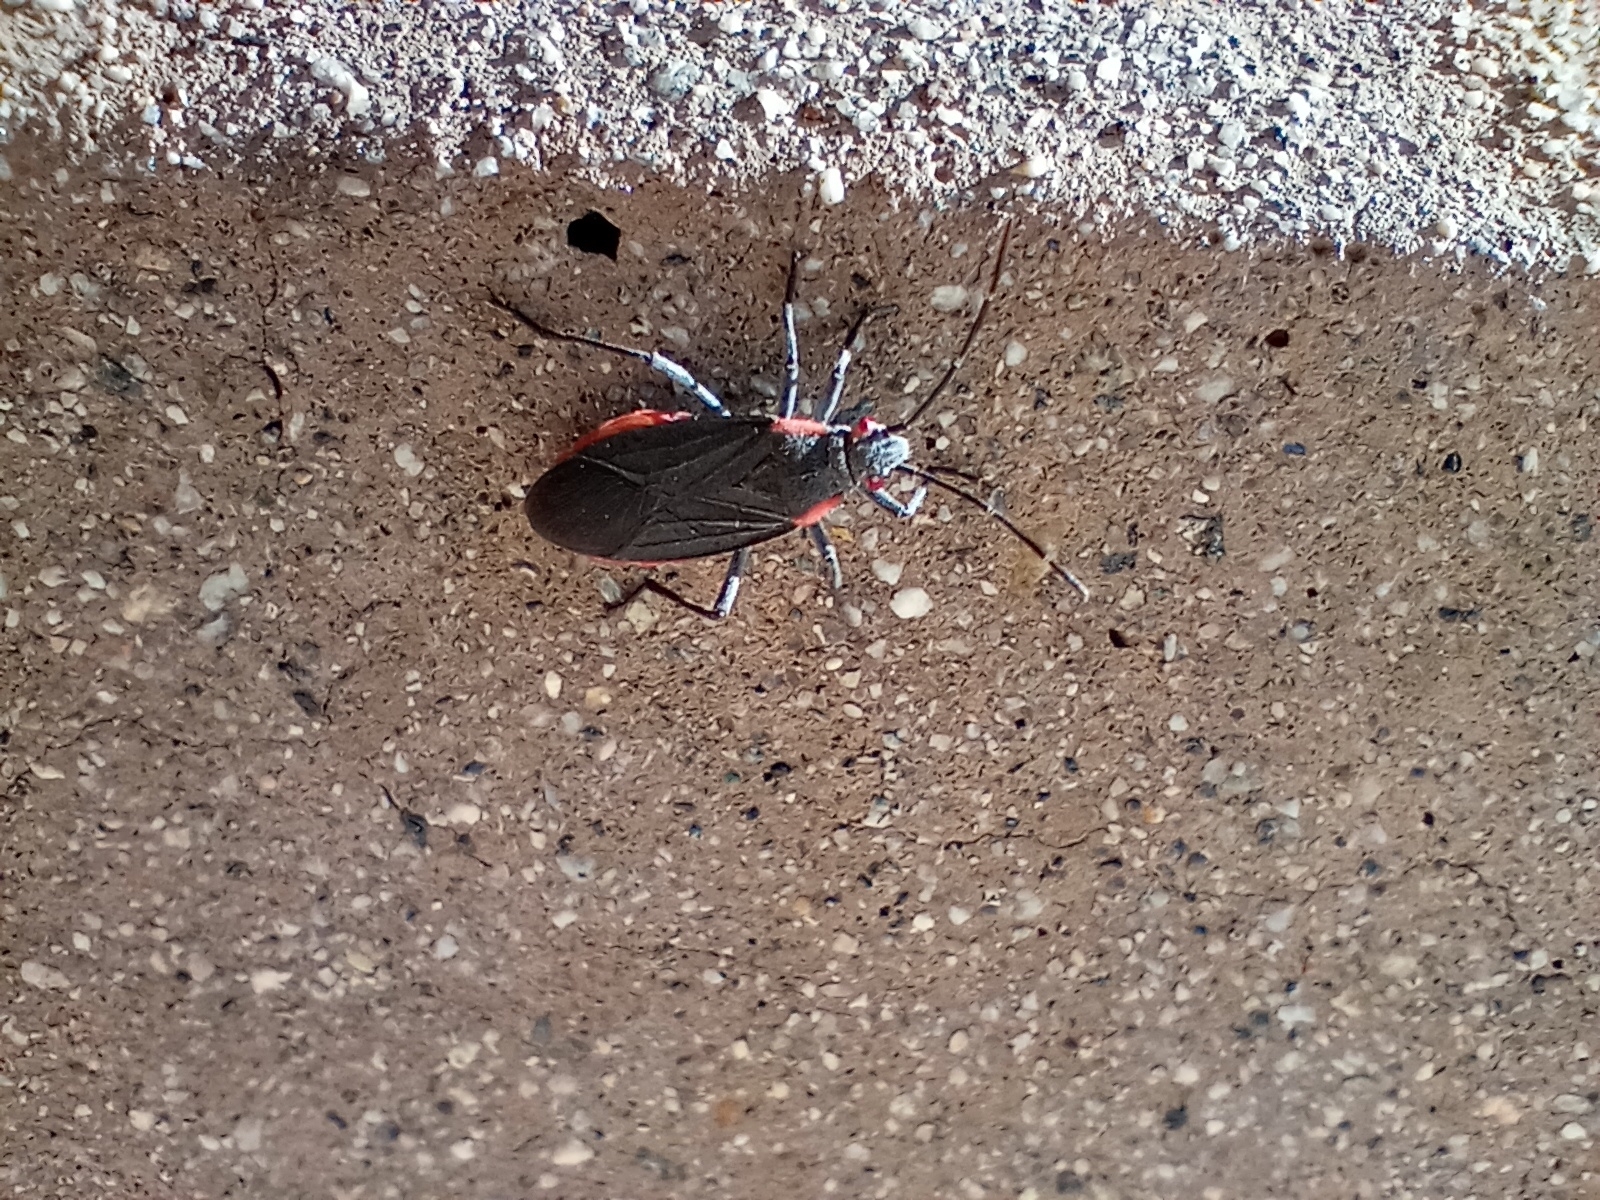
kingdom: Animalia
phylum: Arthropoda
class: Insecta
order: Hemiptera
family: Rhopalidae
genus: Jadera
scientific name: Jadera haematoloma
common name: Red-shouldered bug
